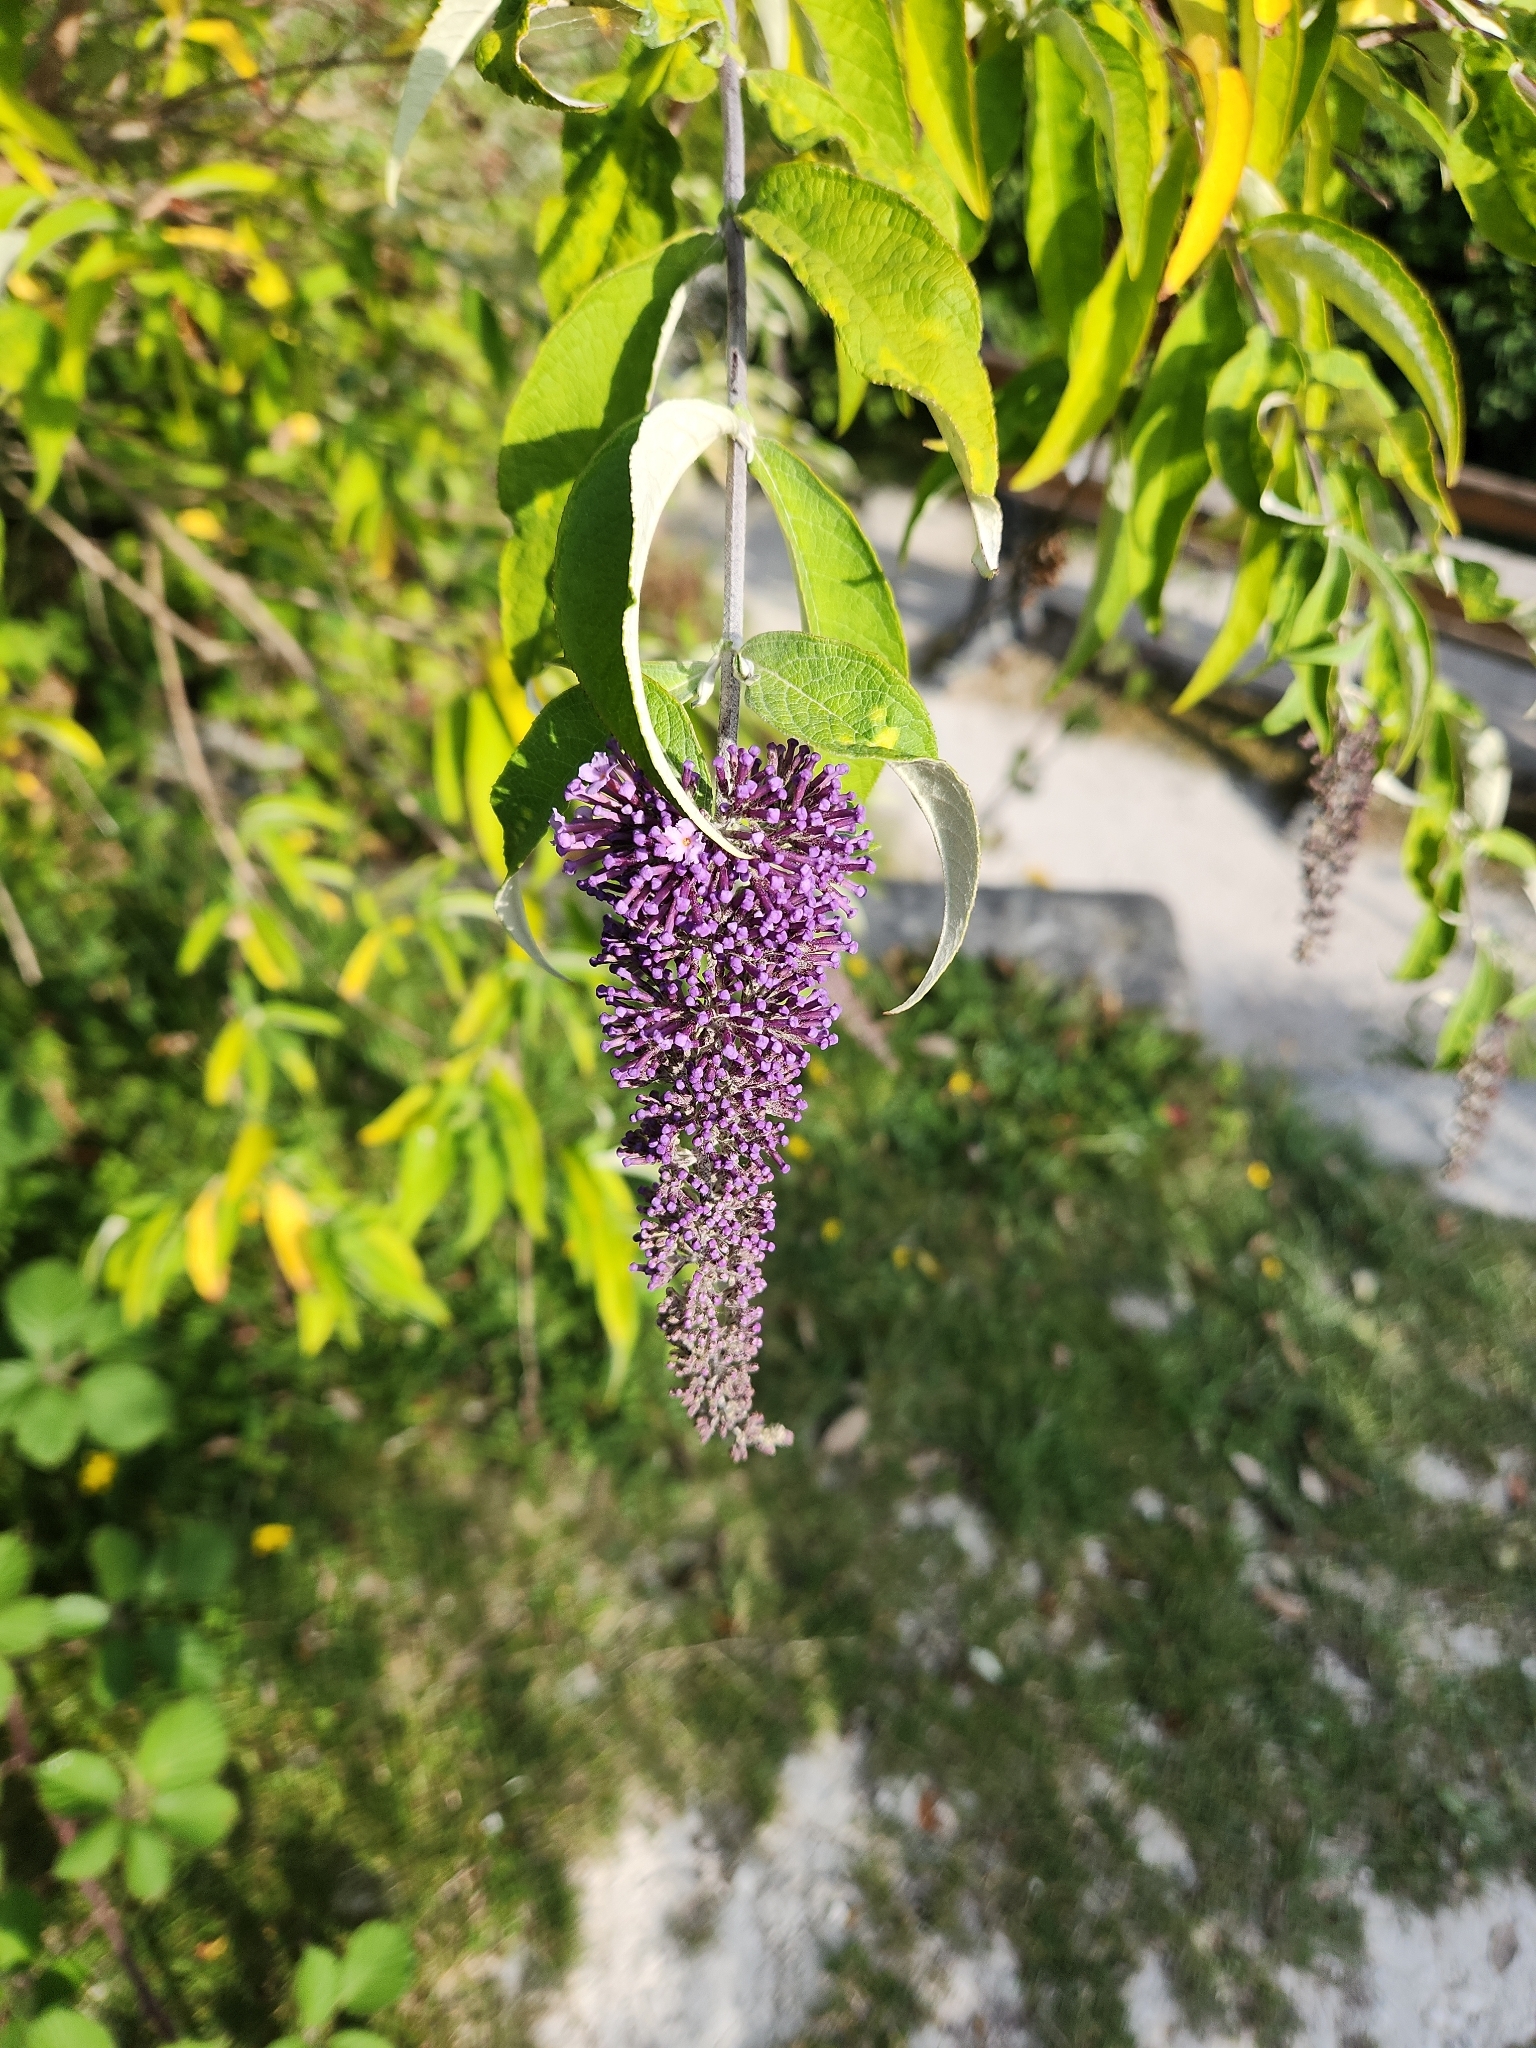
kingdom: Plantae
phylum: Tracheophyta
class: Magnoliopsida
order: Lamiales
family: Scrophulariaceae
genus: Buddleja
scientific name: Buddleja davidii
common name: Butterfly-bush
